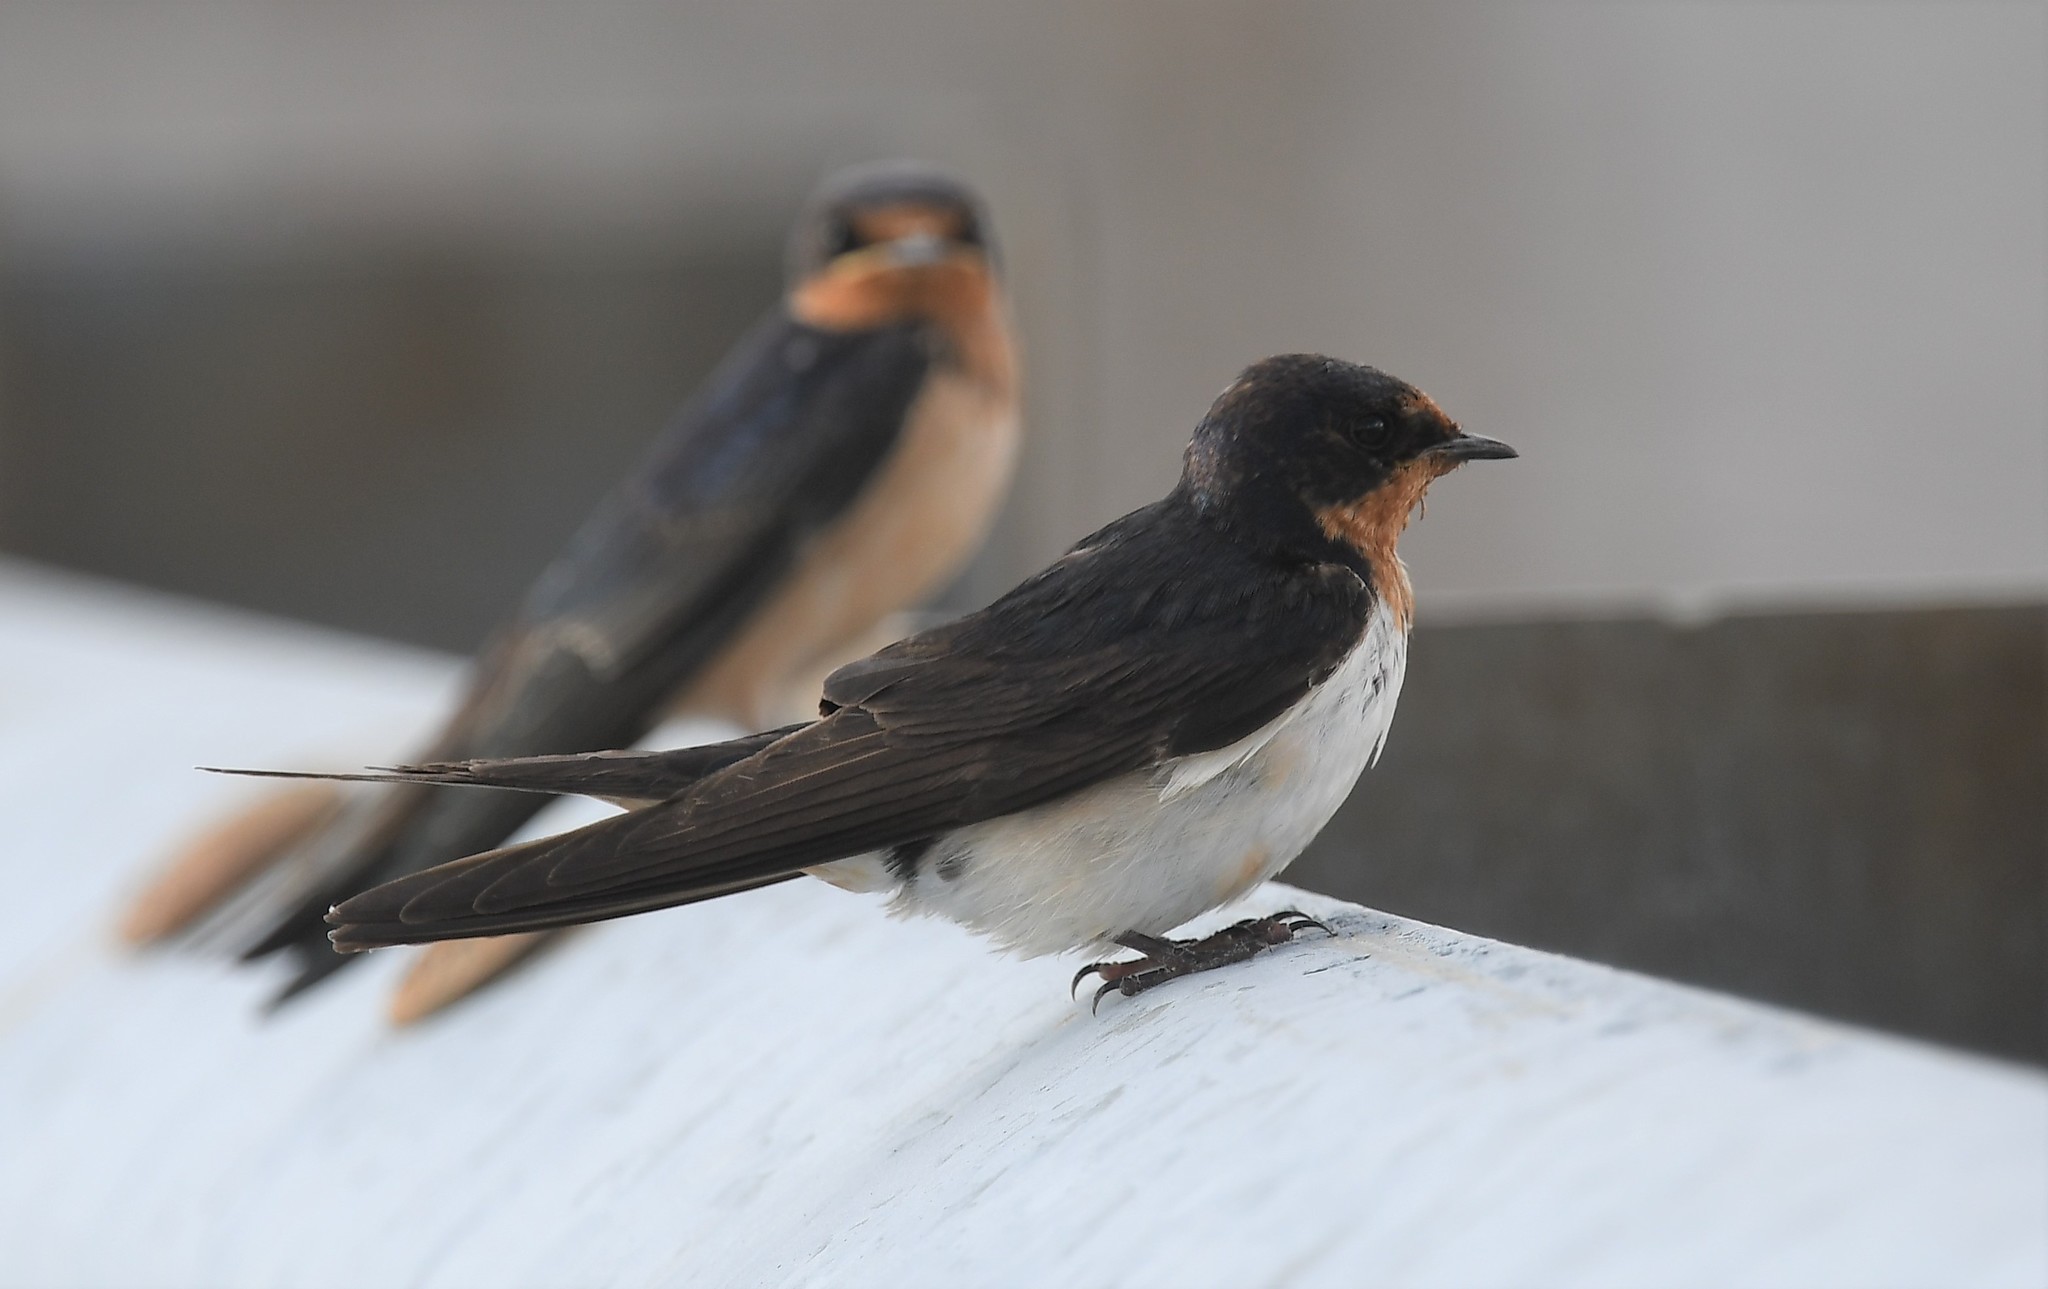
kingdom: Animalia
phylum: Chordata
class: Aves
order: Passeriformes
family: Hirundinidae
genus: Hirundo
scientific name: Hirundo rustica
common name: Barn swallow
